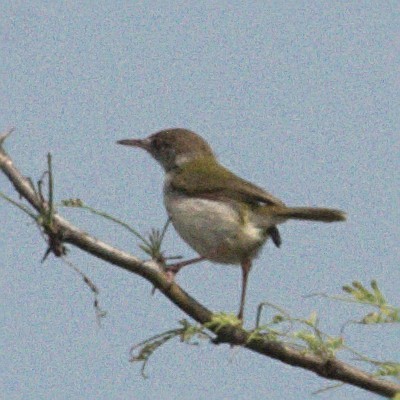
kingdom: Animalia
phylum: Chordata
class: Aves
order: Passeriformes
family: Cisticolidae
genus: Orthotomus
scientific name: Orthotomus sutorius
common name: Common tailorbird
